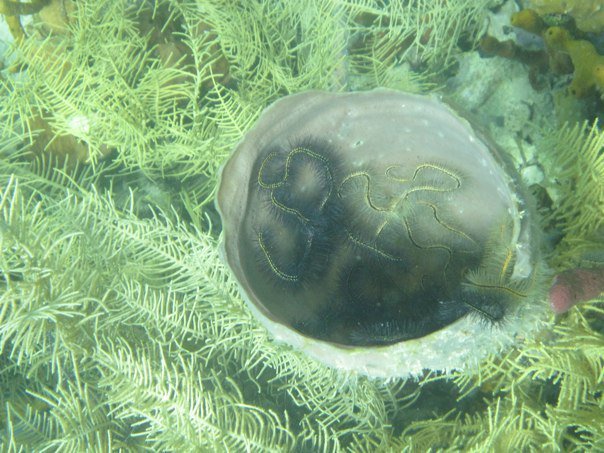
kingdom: Animalia
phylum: Echinodermata
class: Ophiuroidea
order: Amphilepidida
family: Ophiotrichidae
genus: Ophiothrix
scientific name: Ophiothrix suensonii
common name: Sponge brittle star
